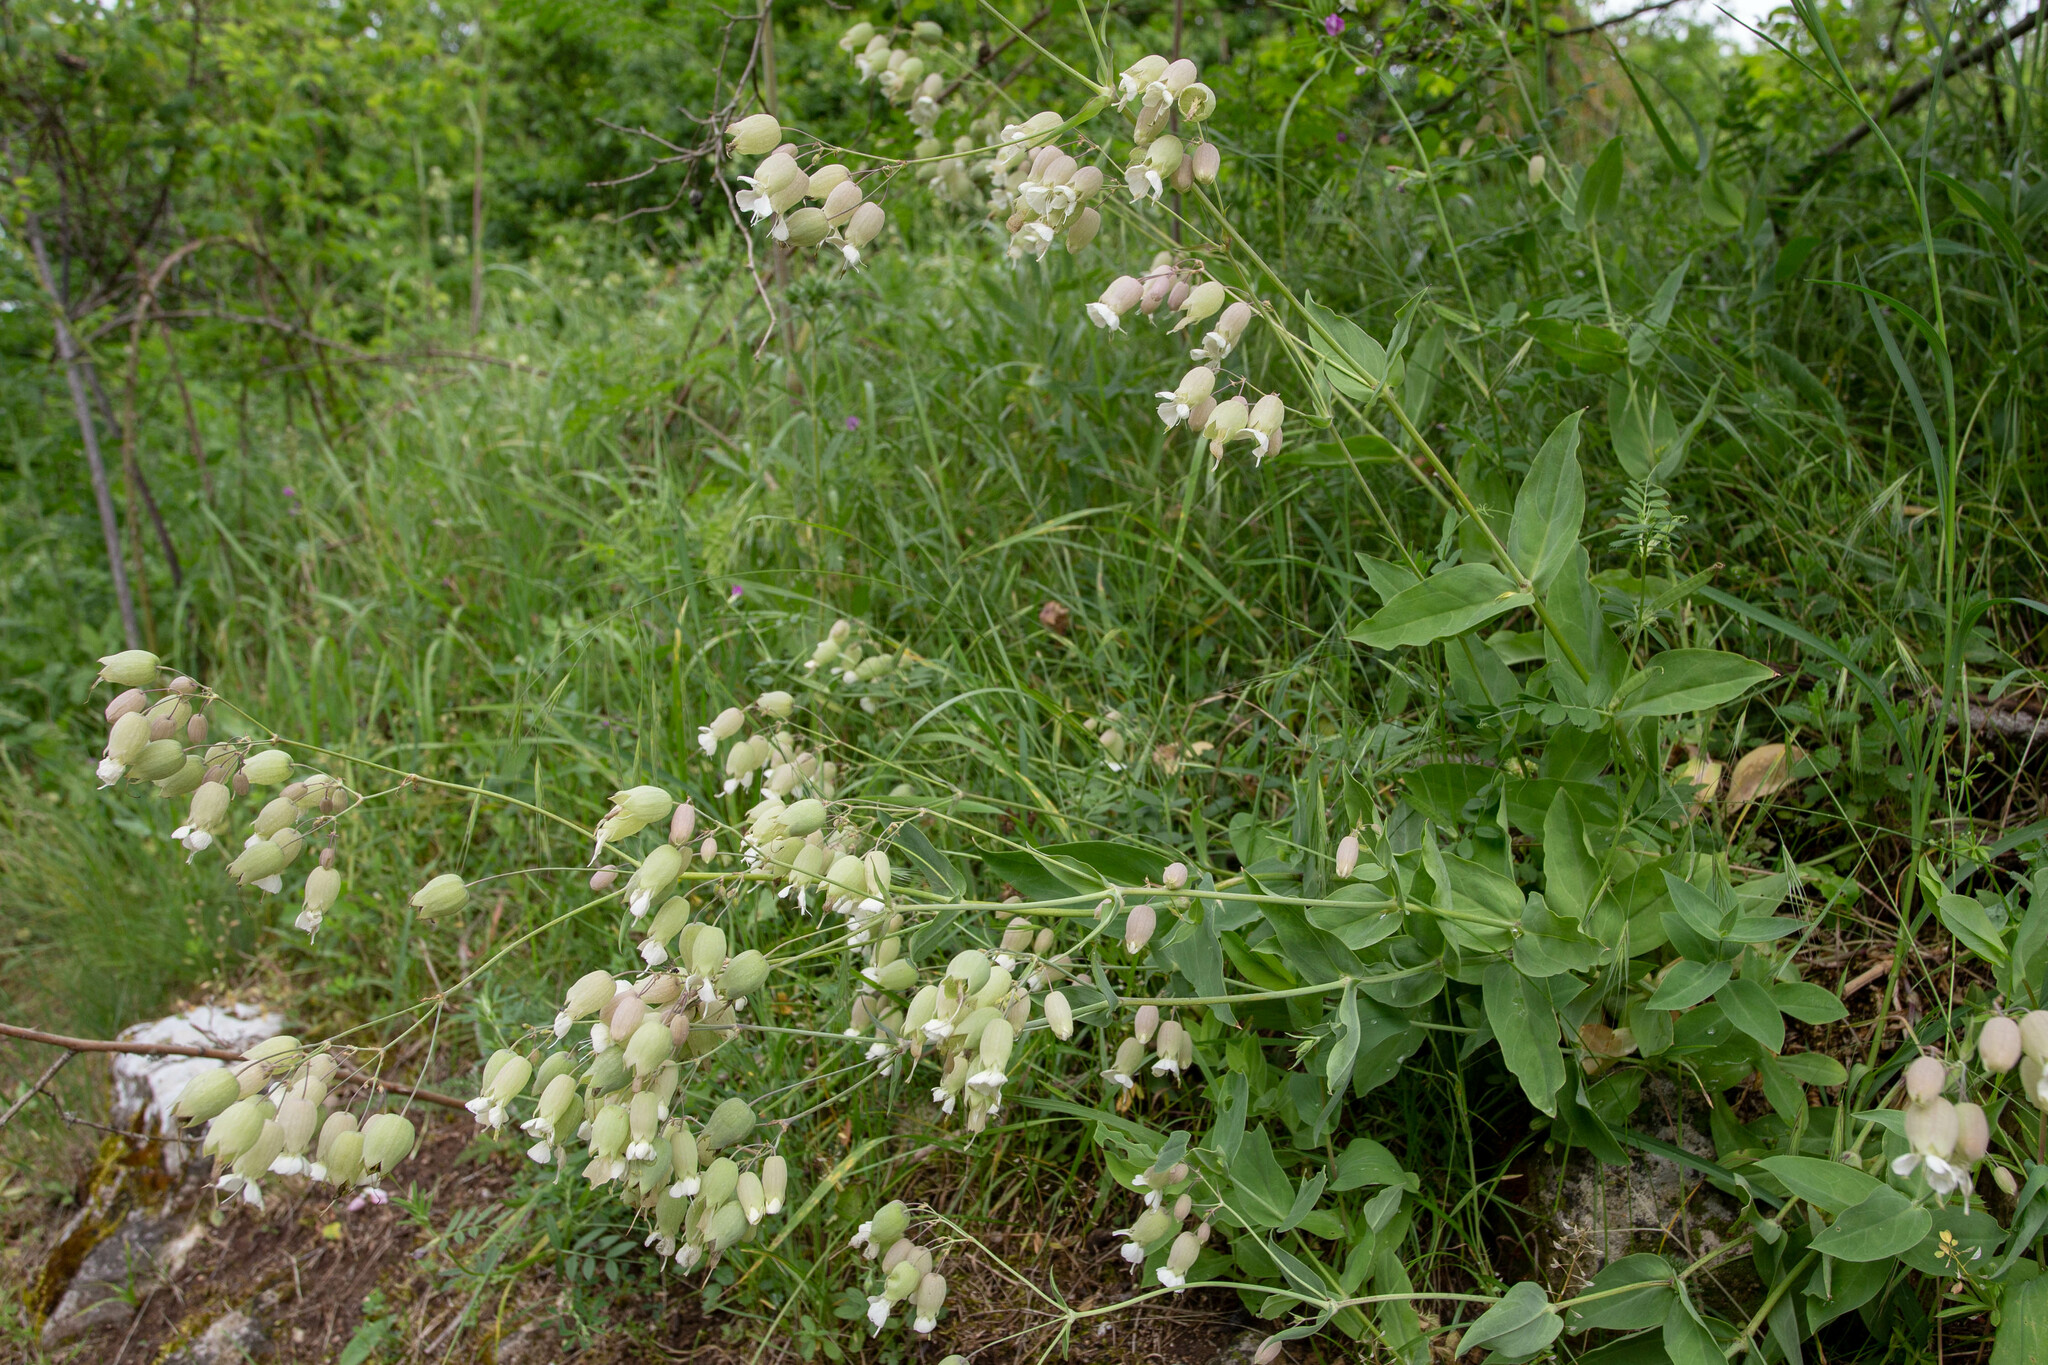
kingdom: Plantae
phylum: Tracheophyta
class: Magnoliopsida
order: Caryophyllales
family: Caryophyllaceae
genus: Silene
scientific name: Silene vulgaris
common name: Bladder campion
